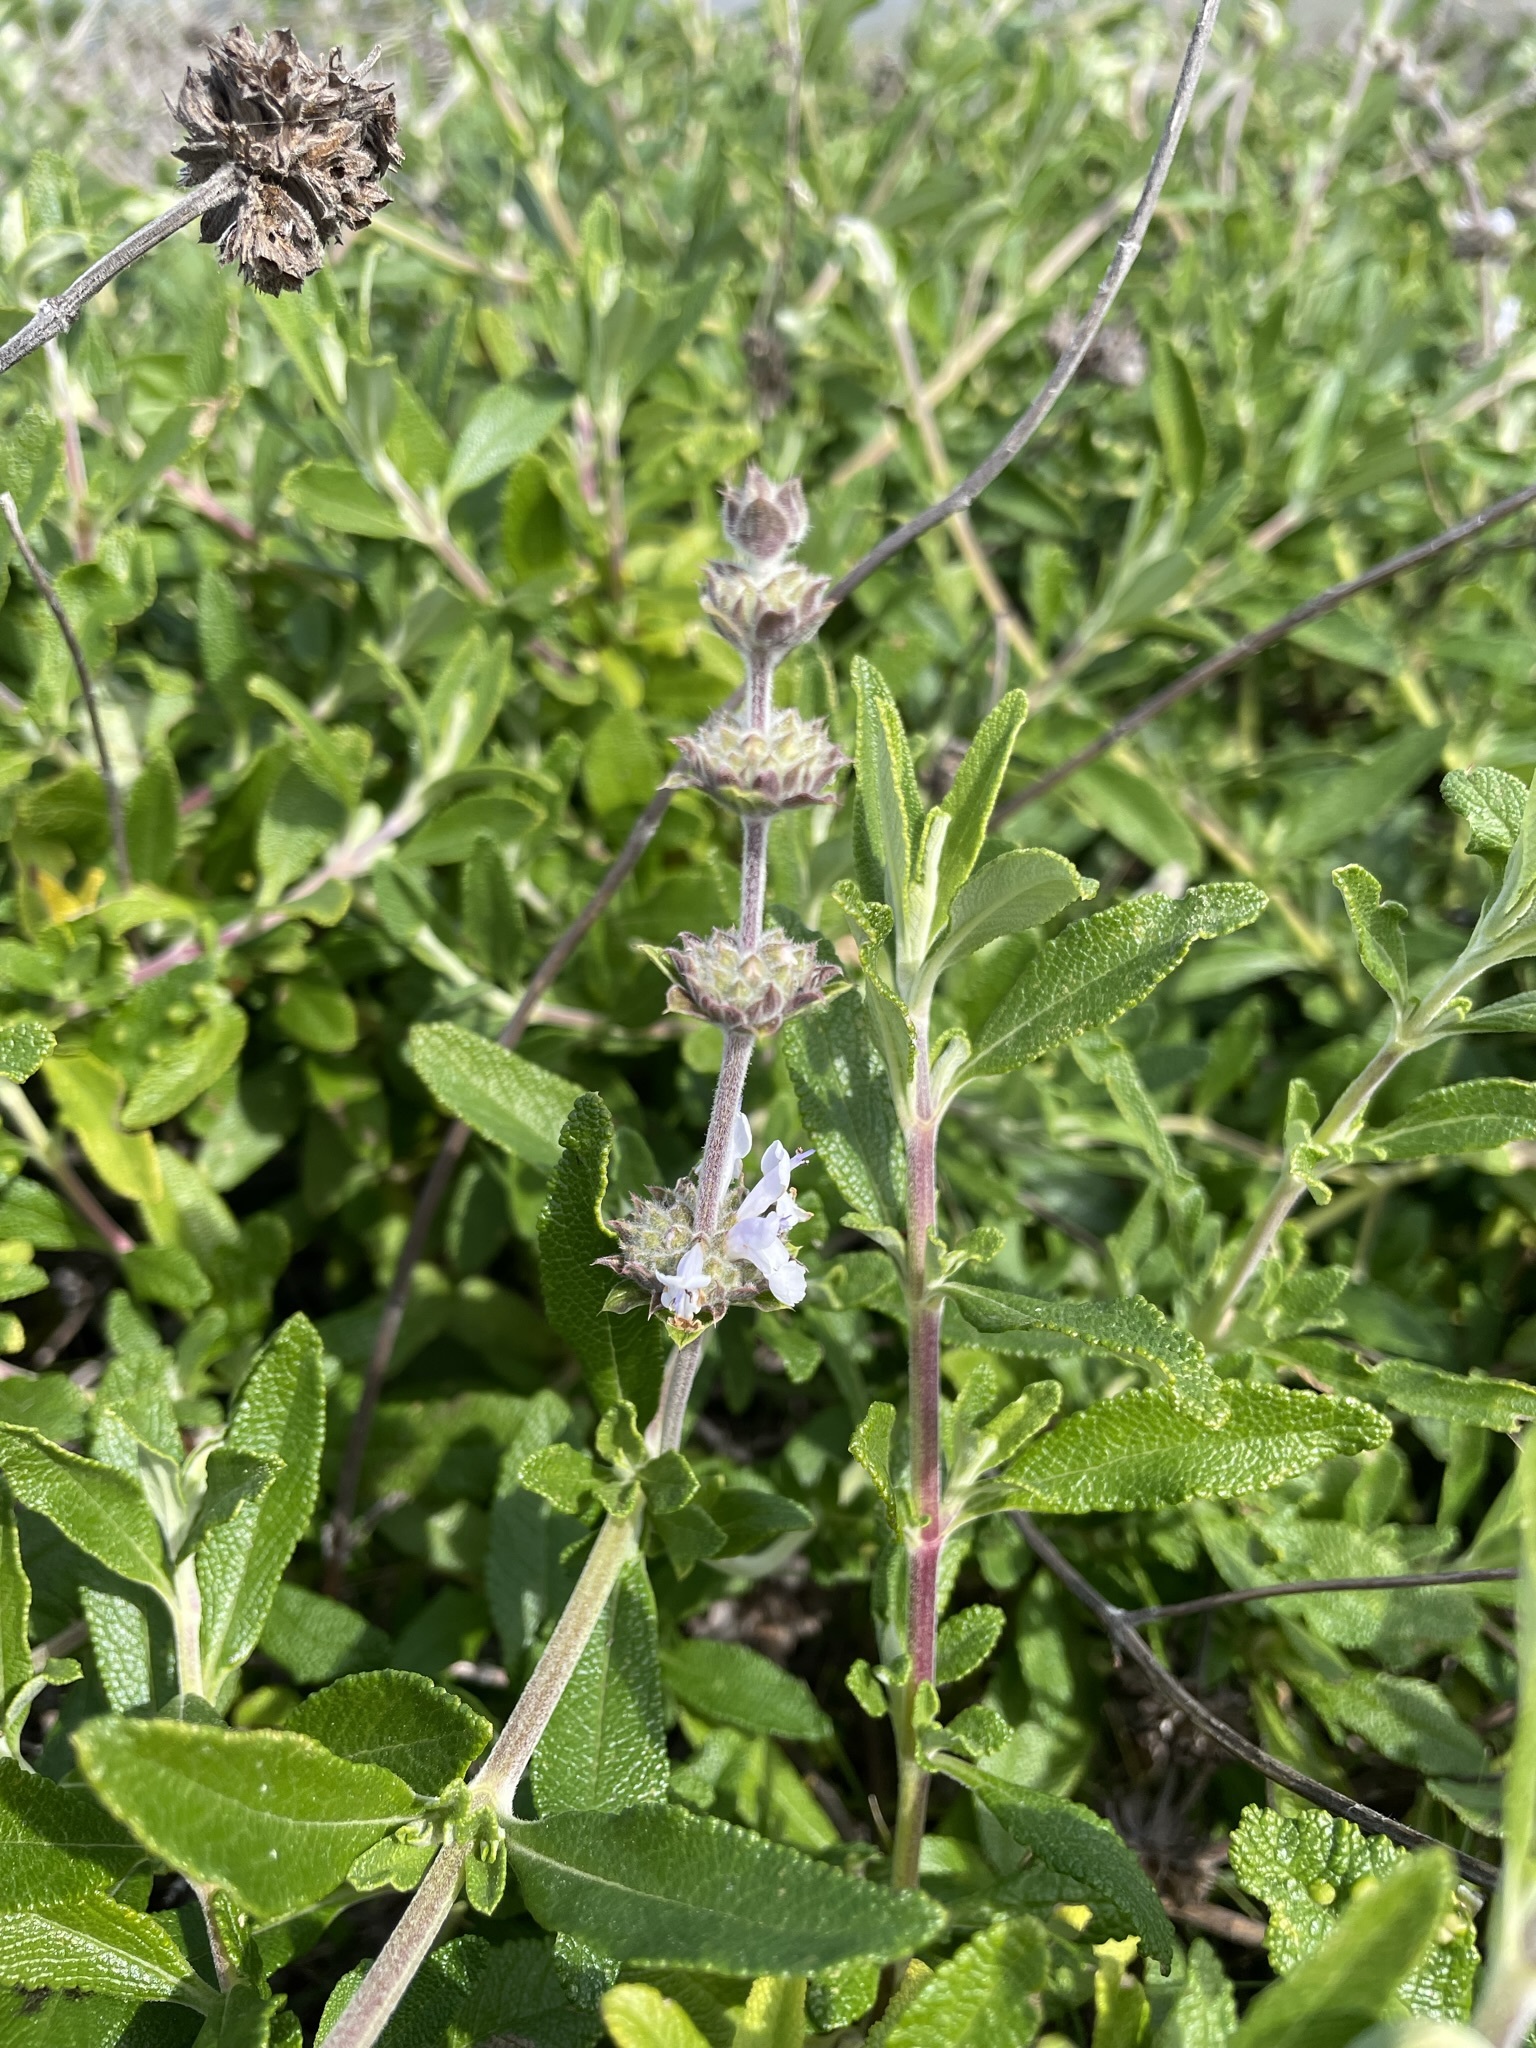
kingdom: Plantae
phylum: Tracheophyta
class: Magnoliopsida
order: Lamiales
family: Lamiaceae
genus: Salvia
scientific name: Salvia mellifera
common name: Black sage
